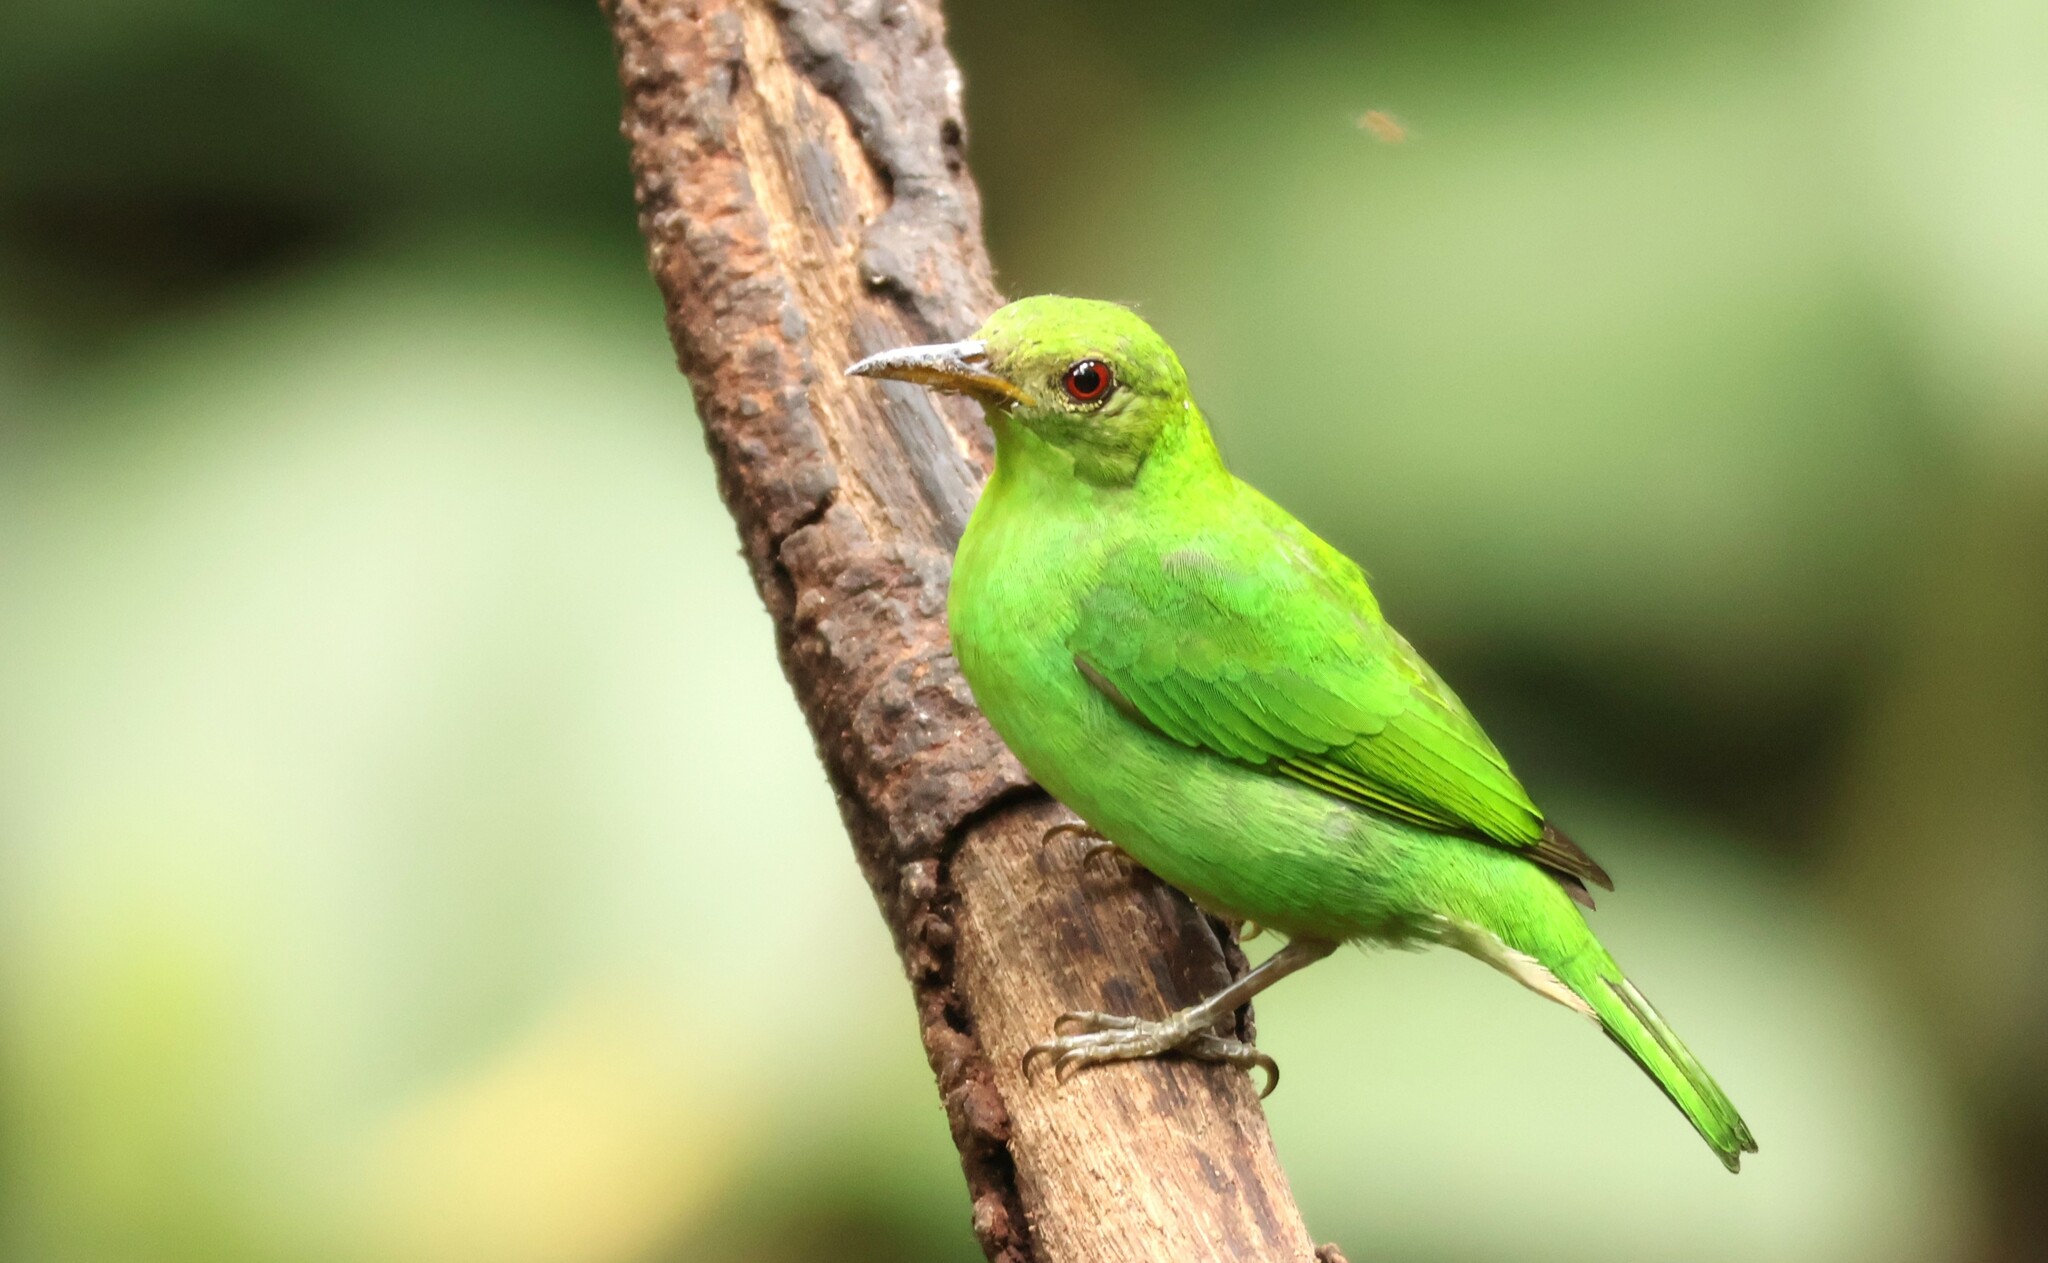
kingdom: Animalia
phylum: Chordata
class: Aves
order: Passeriformes
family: Thraupidae
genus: Chlorophanes
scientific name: Chlorophanes spiza
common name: Green honeycreeper
